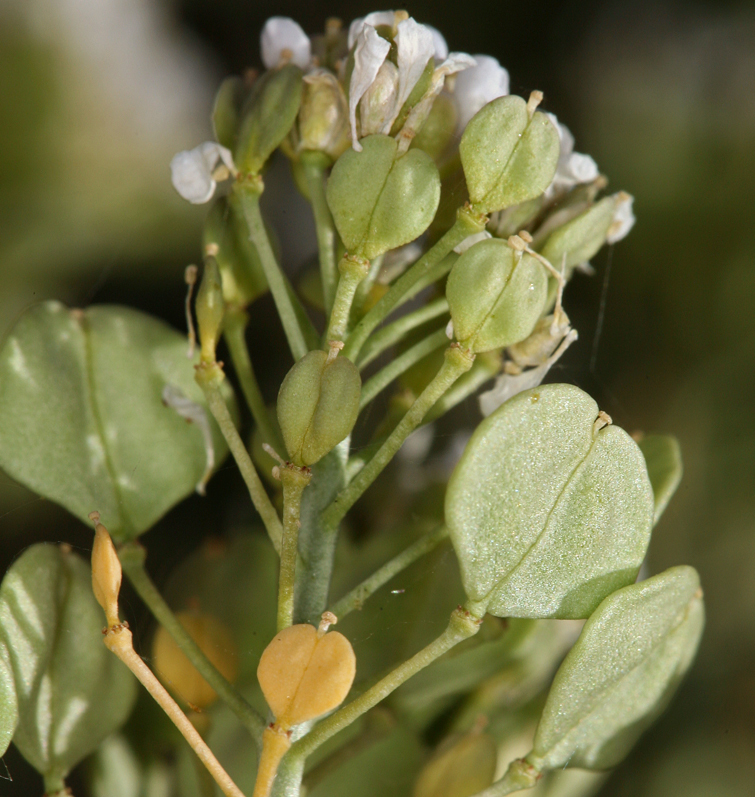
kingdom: Plantae
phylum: Tracheophyta
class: Magnoliopsida
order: Brassicales
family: Brassicaceae
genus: Lepidium
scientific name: Lepidium fremontii
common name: Fremont's pepperwort
